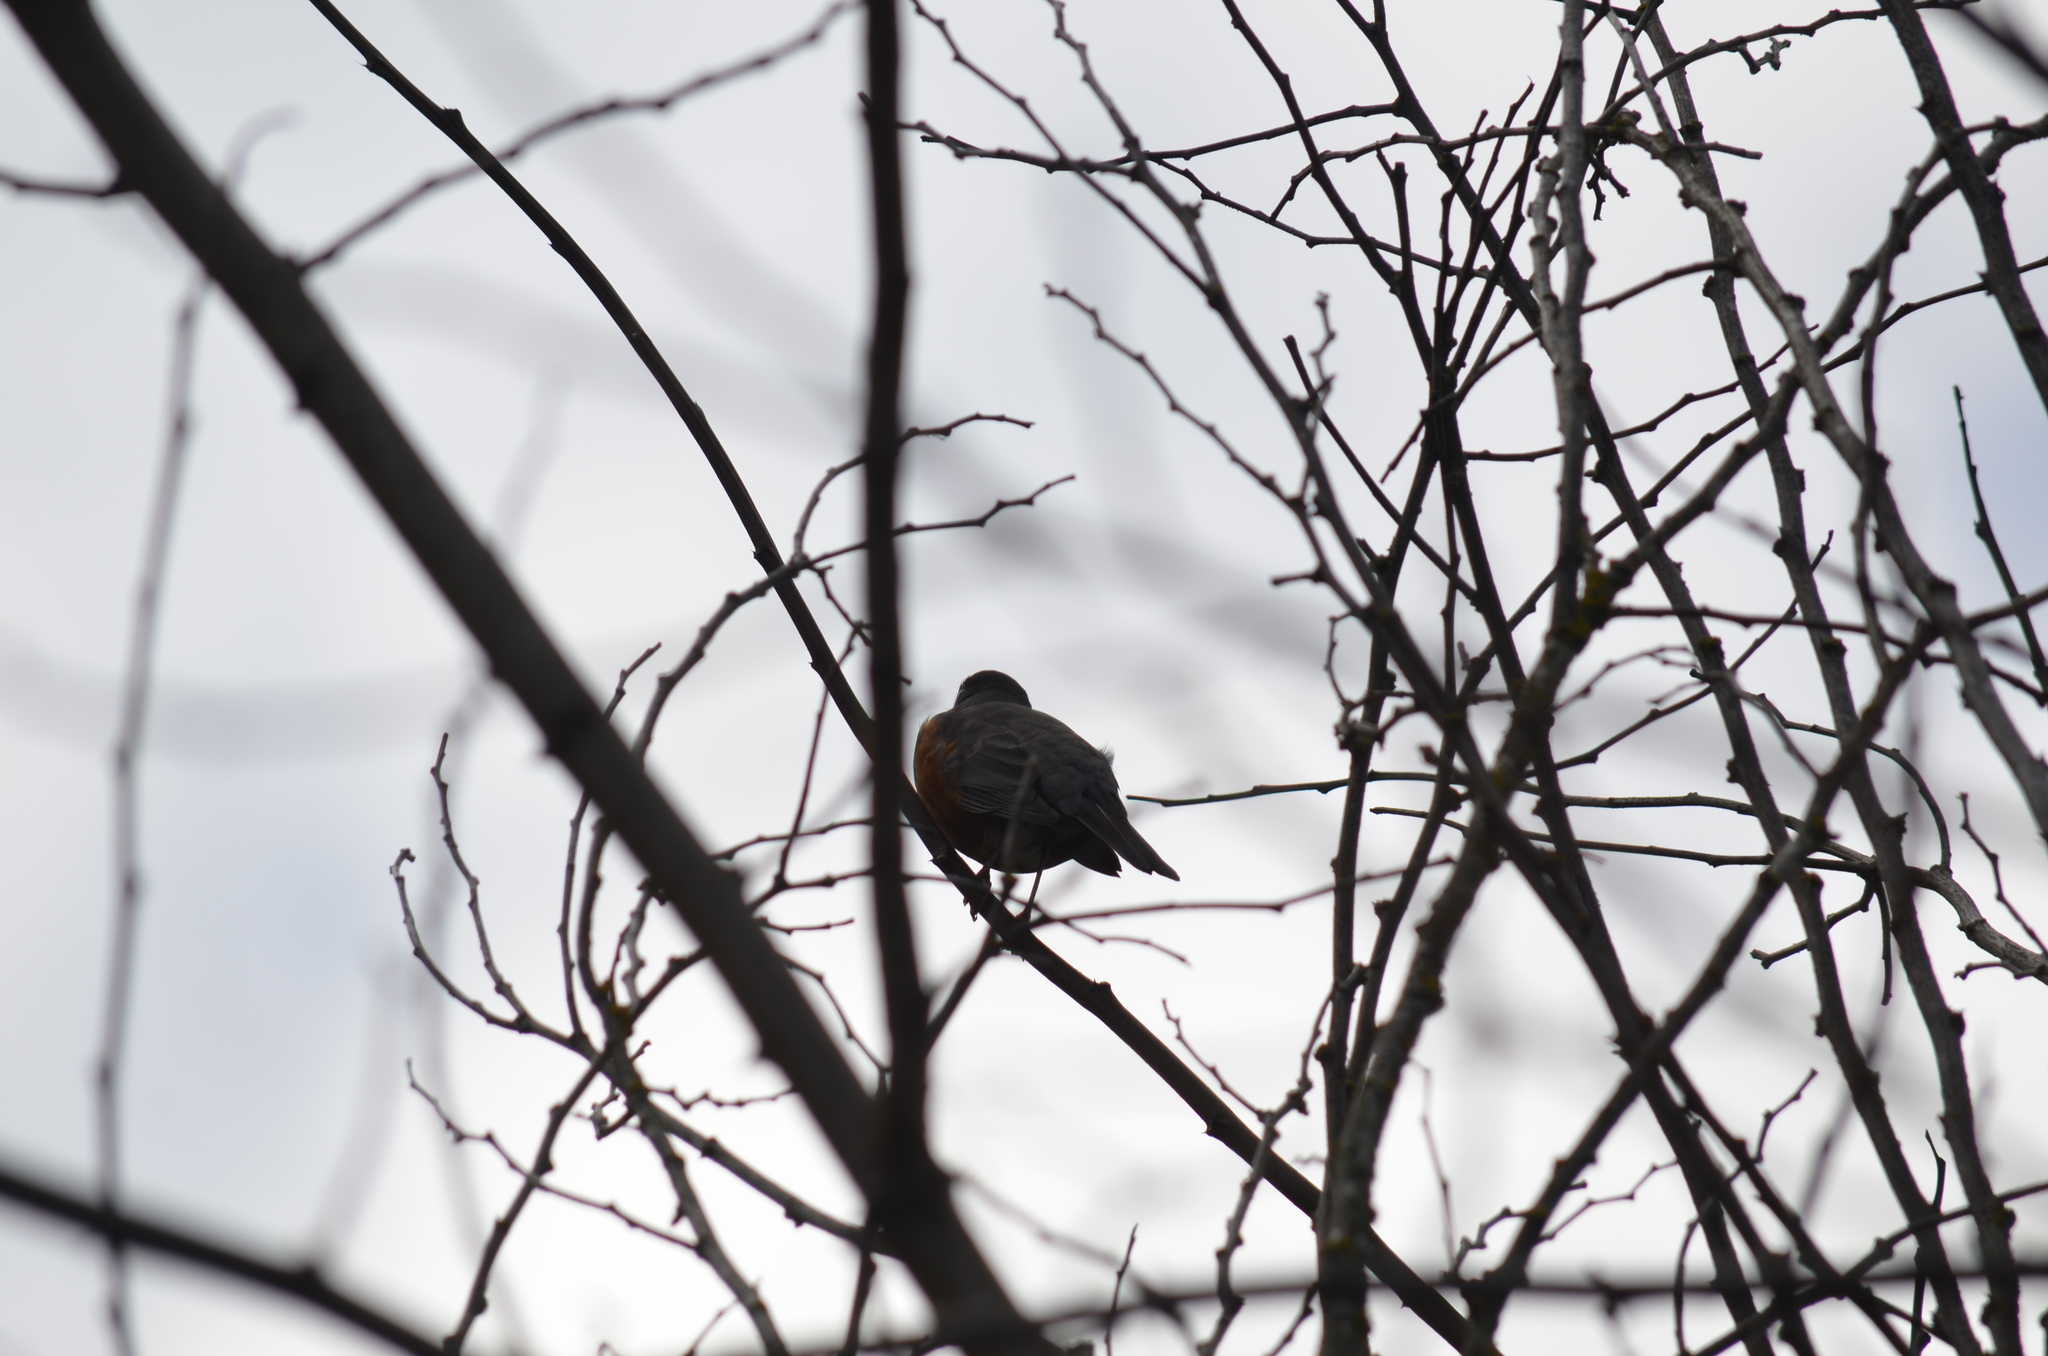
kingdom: Animalia
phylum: Chordata
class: Aves
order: Passeriformes
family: Turdidae
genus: Turdus
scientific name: Turdus migratorius
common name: American robin
